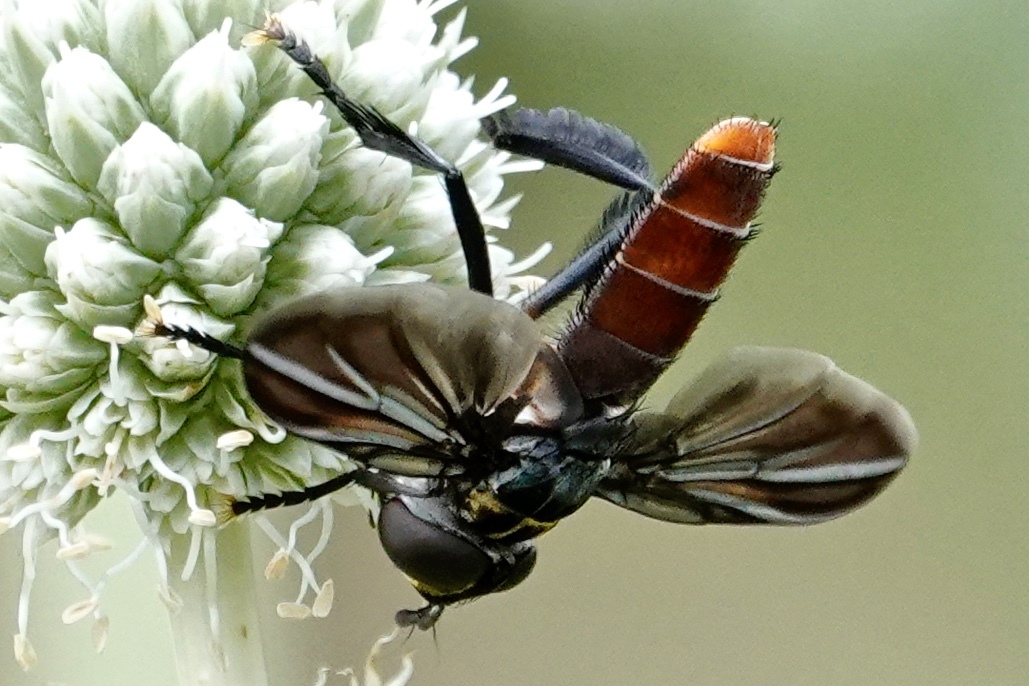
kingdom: Animalia
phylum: Arthropoda
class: Insecta
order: Diptera
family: Tachinidae
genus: Trichopoda
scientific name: Trichopoda lanipes
